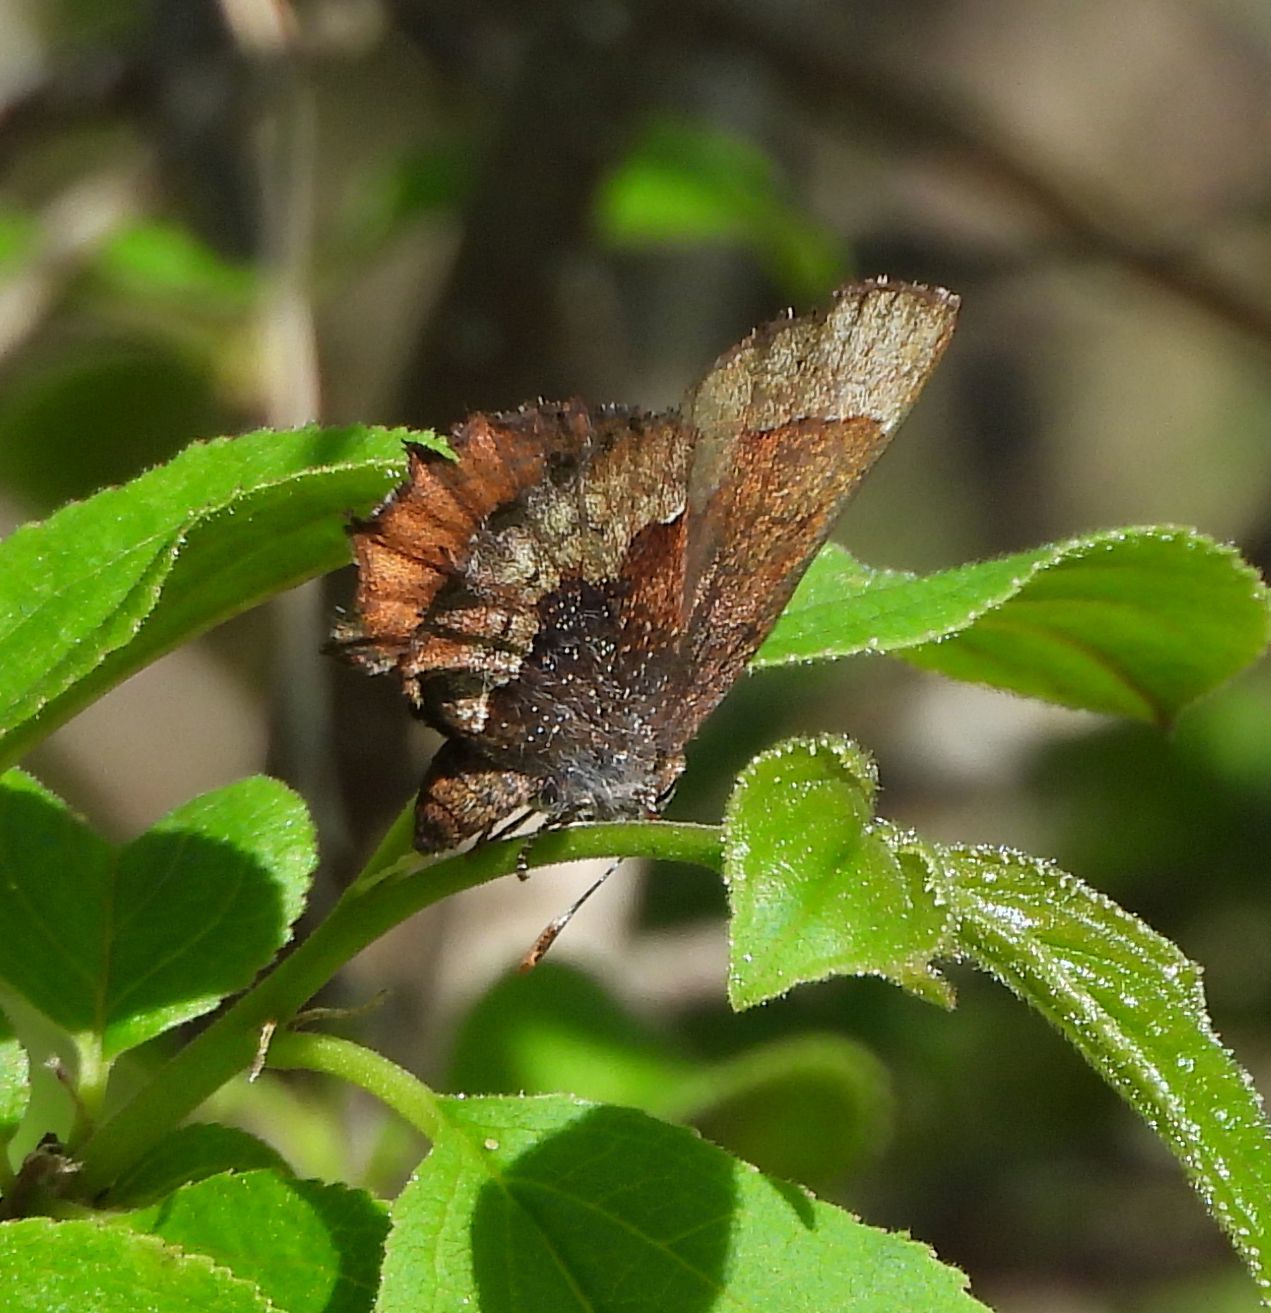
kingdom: Animalia
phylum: Arthropoda
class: Insecta
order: Lepidoptera
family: Lycaenidae
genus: Incisalia
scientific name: Incisalia henrici
